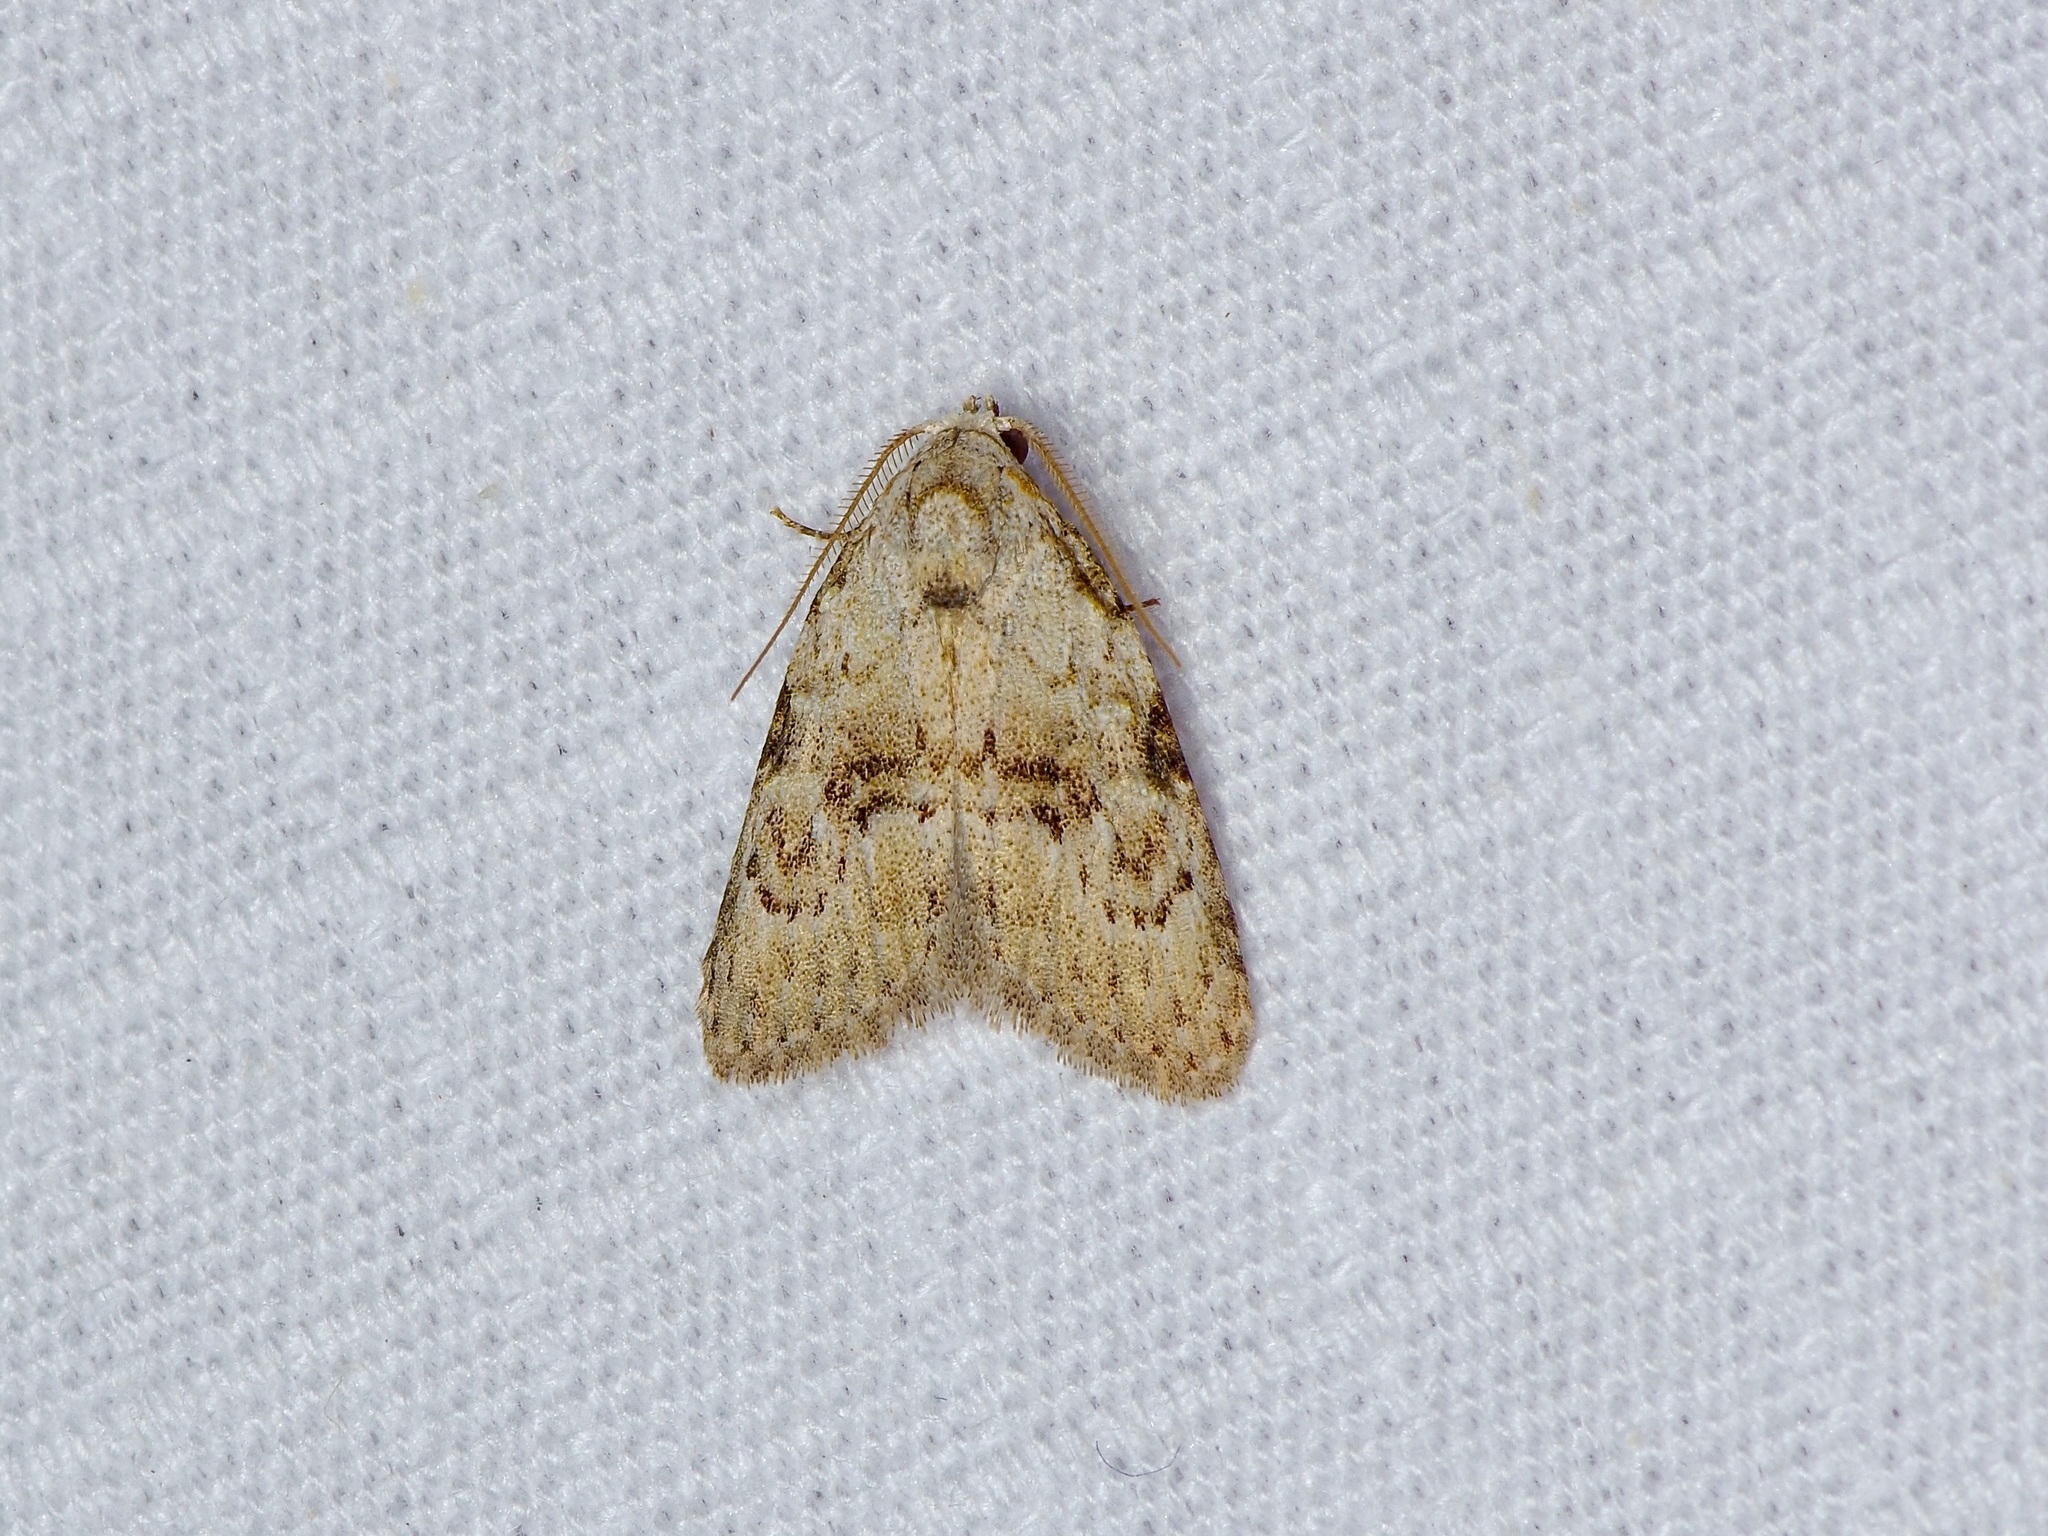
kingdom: Animalia
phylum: Arthropoda
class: Insecta
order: Lepidoptera
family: Nolidae
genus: Meganola
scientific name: Meganola minuscula
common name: Confused meganola moth
